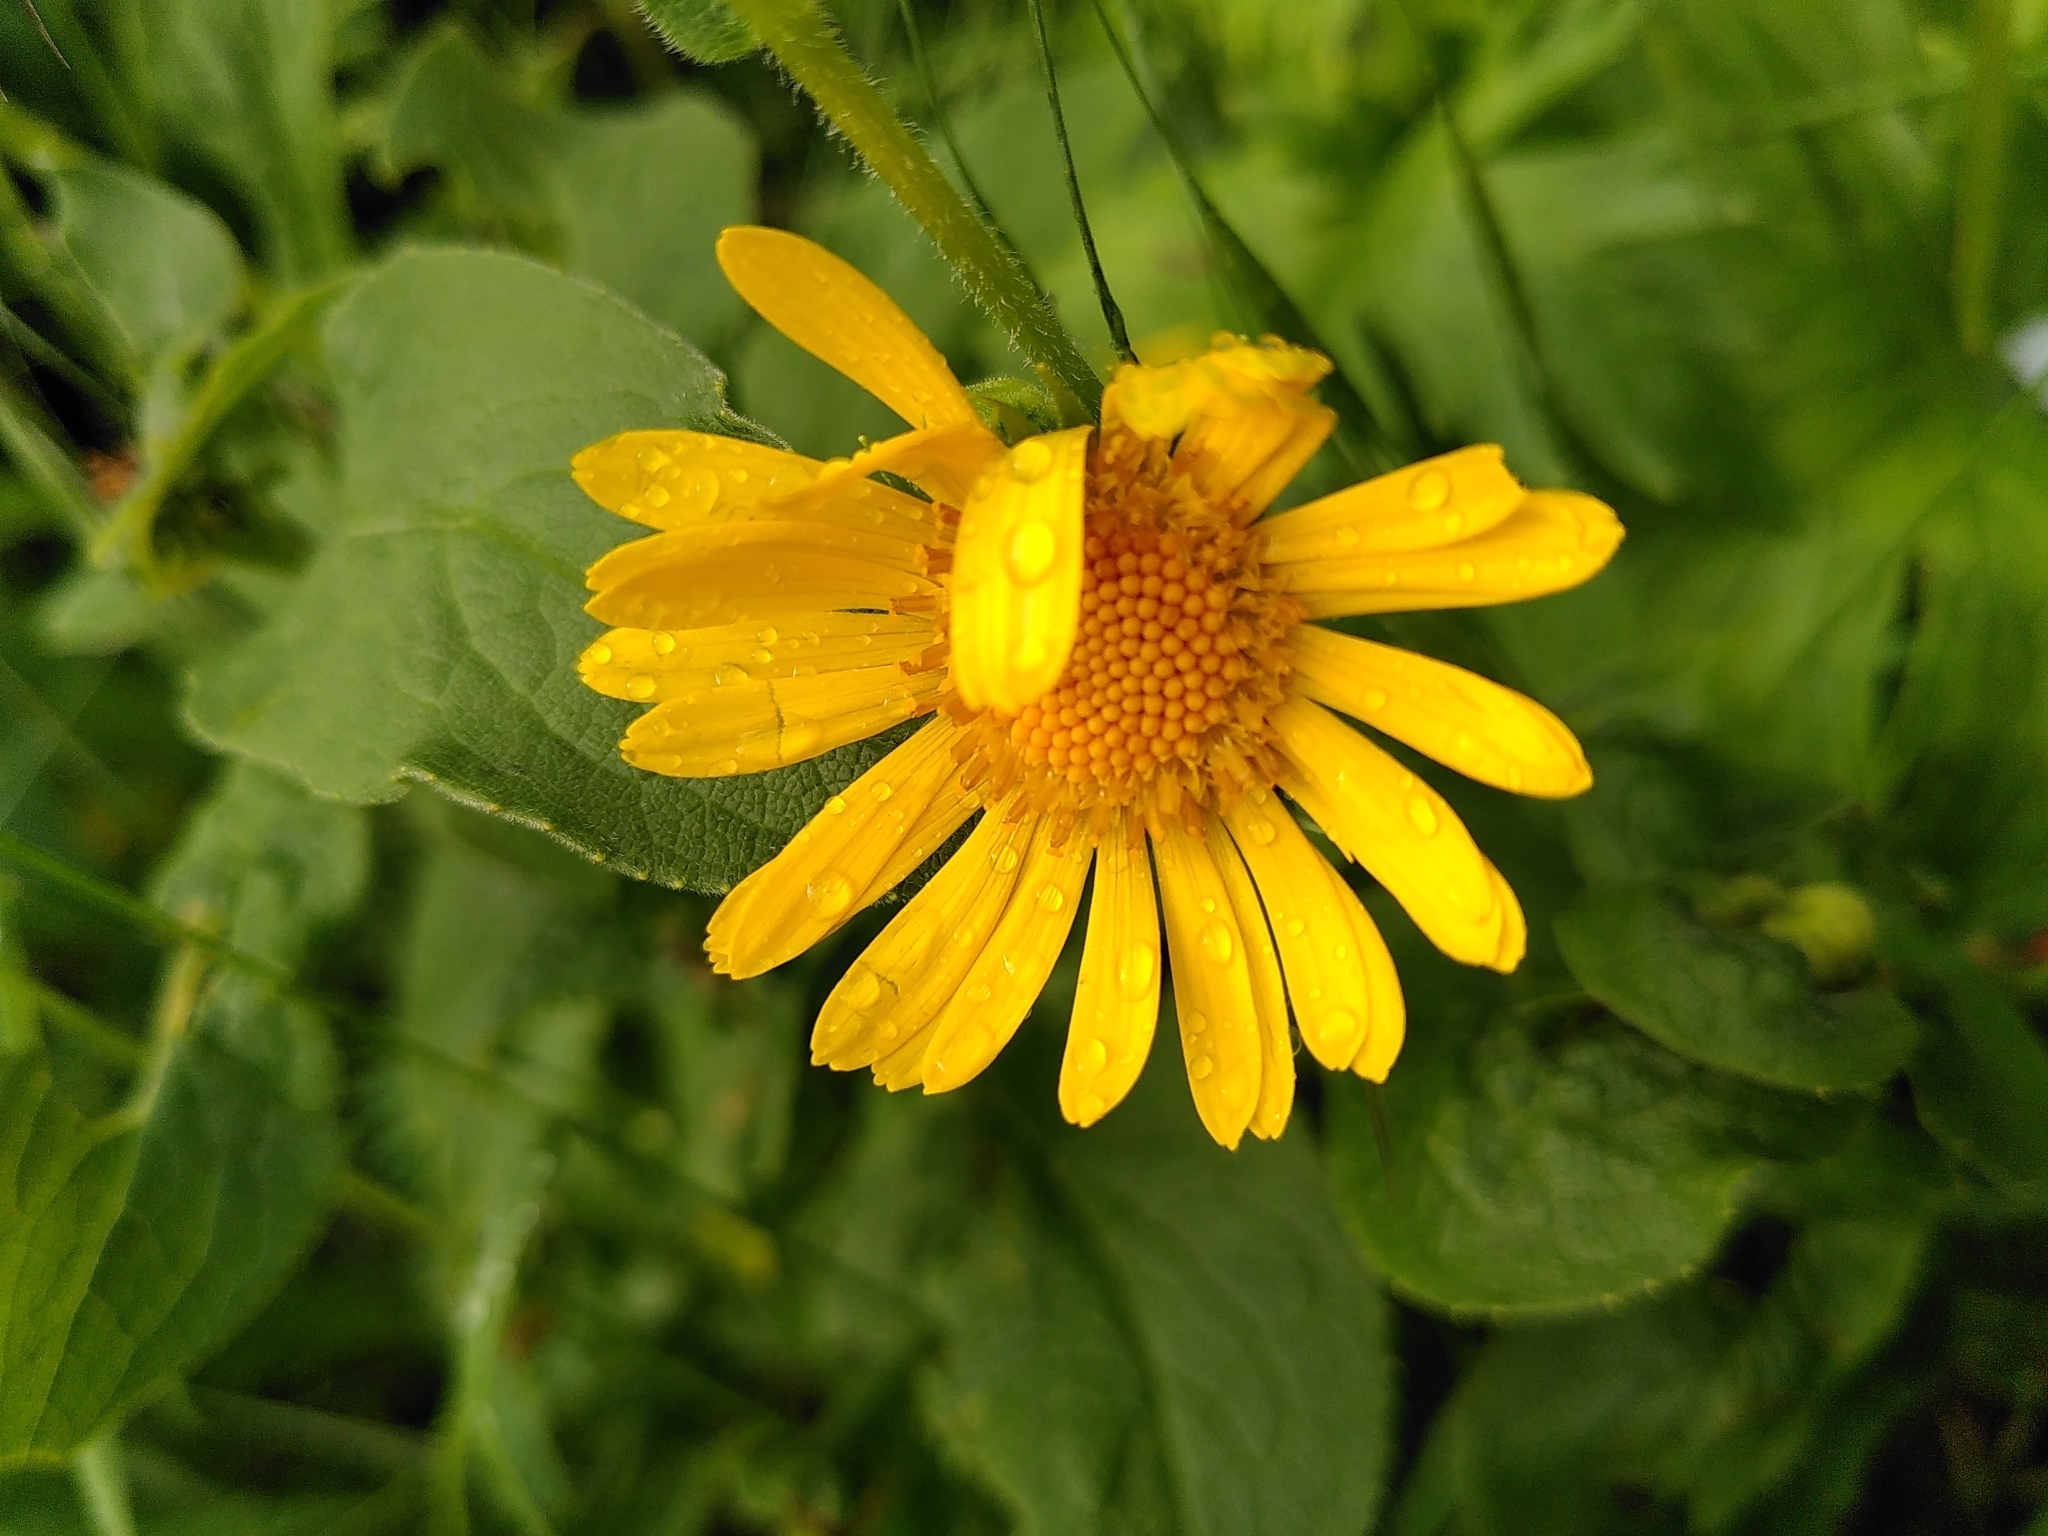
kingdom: Plantae
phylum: Tracheophyta
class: Magnoliopsida
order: Asterales
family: Asteraceae
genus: Doronicum
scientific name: Doronicum austriacum
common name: Austrian leopard's-bane
